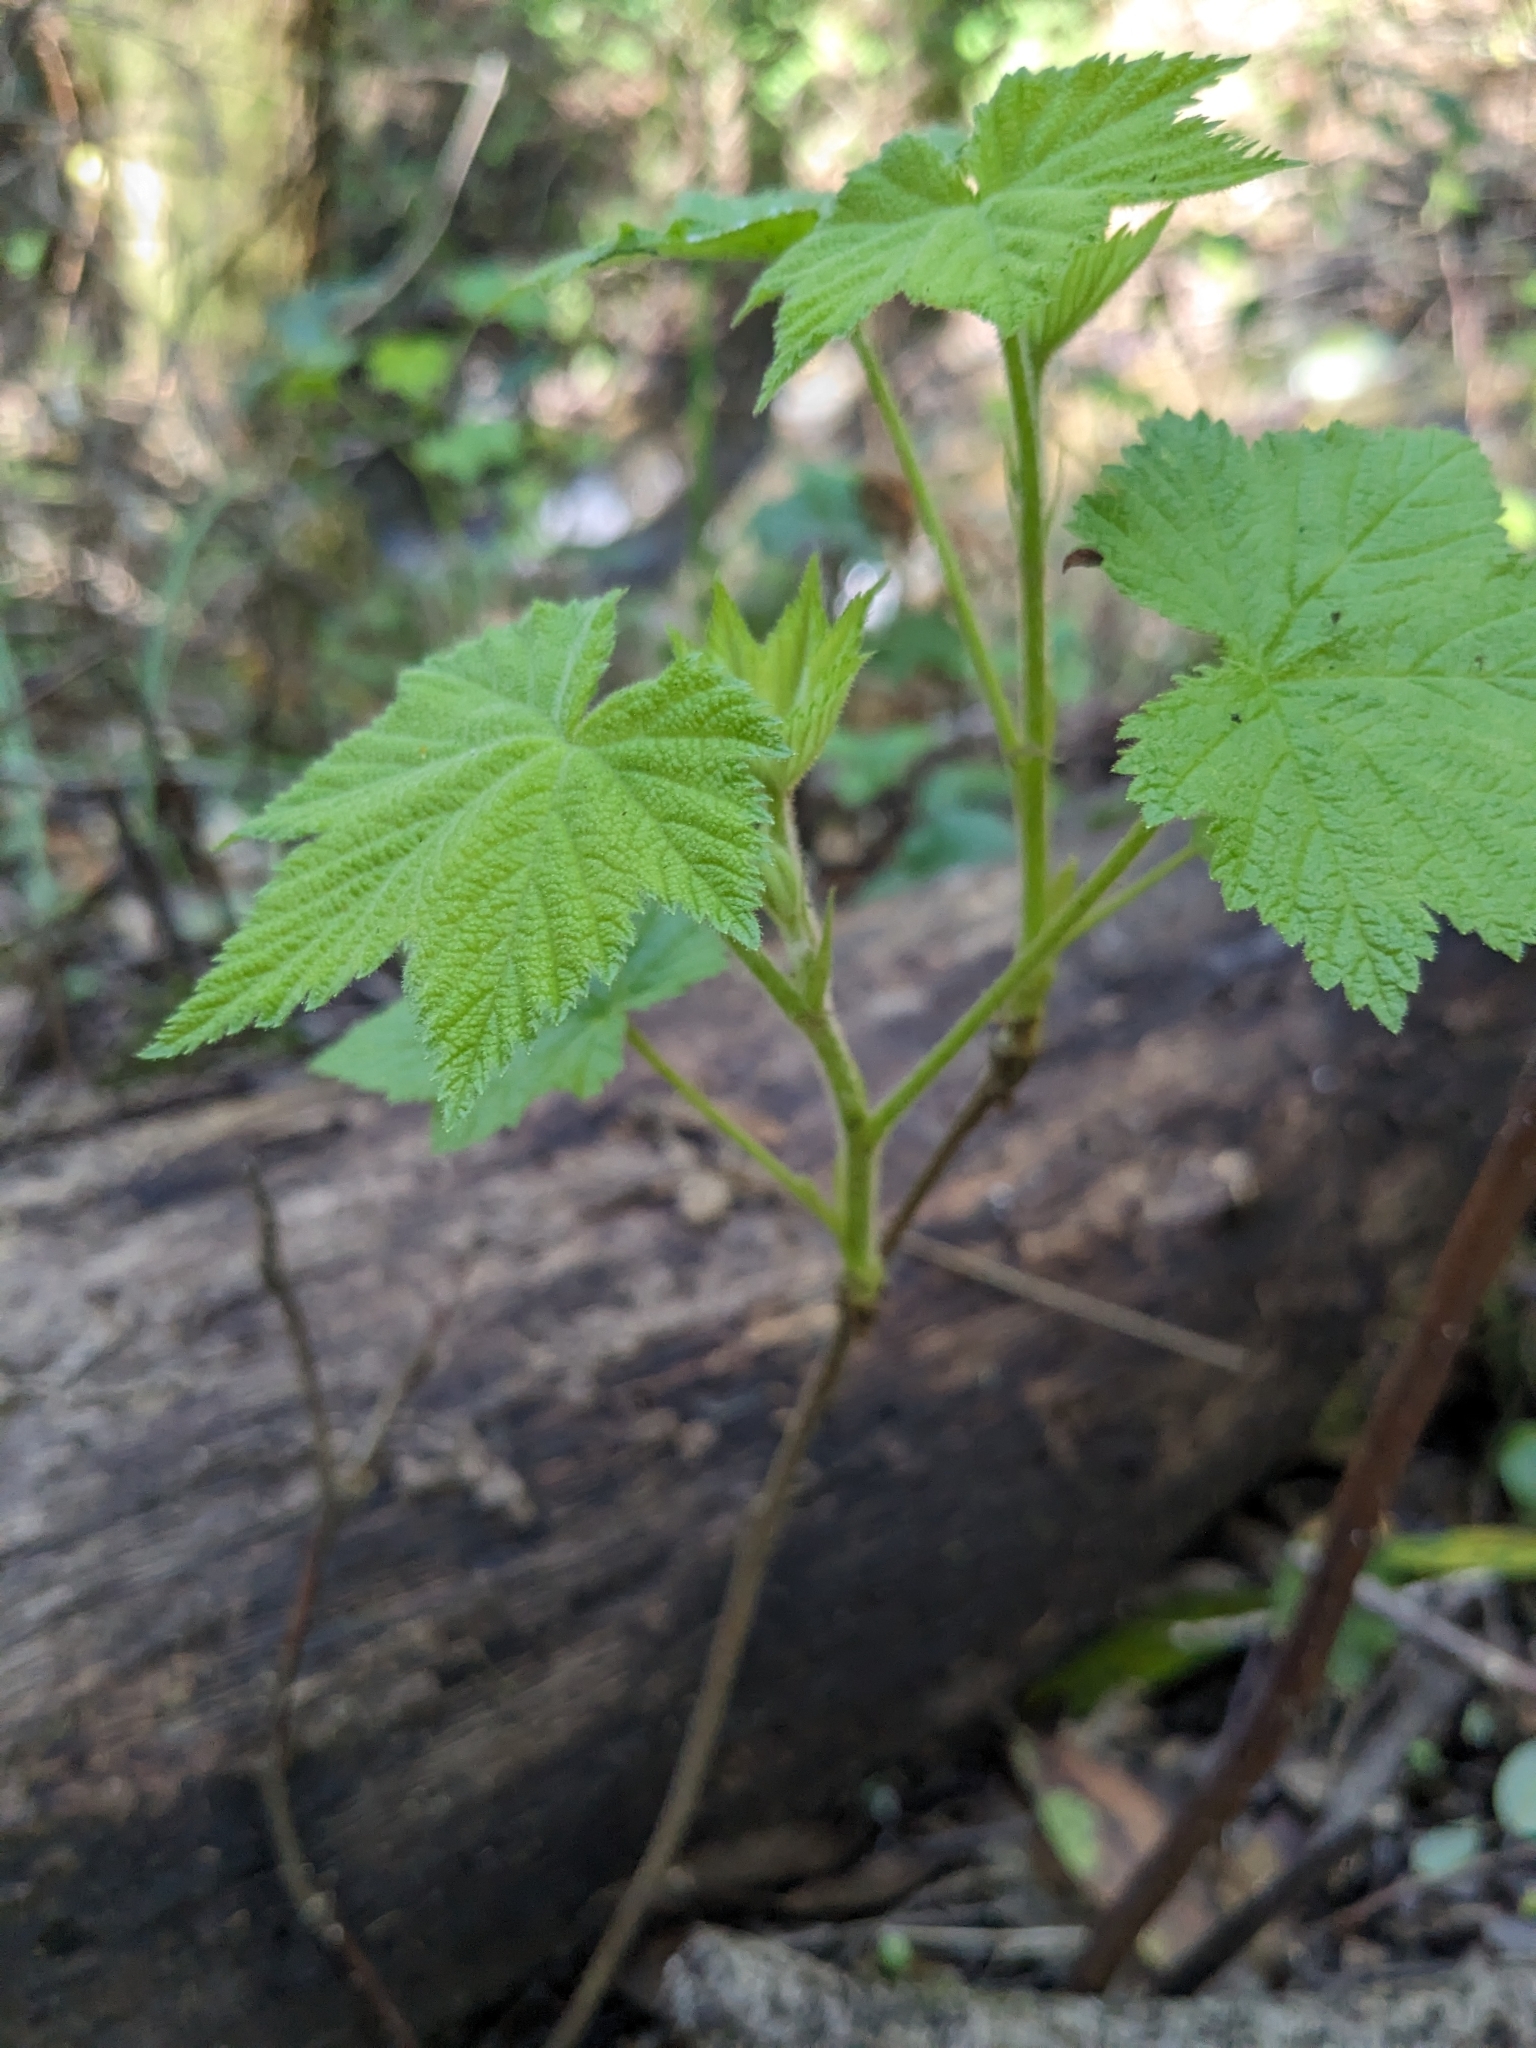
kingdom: Plantae
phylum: Tracheophyta
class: Magnoliopsida
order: Rosales
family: Rosaceae
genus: Rubus
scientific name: Rubus parviflorus
